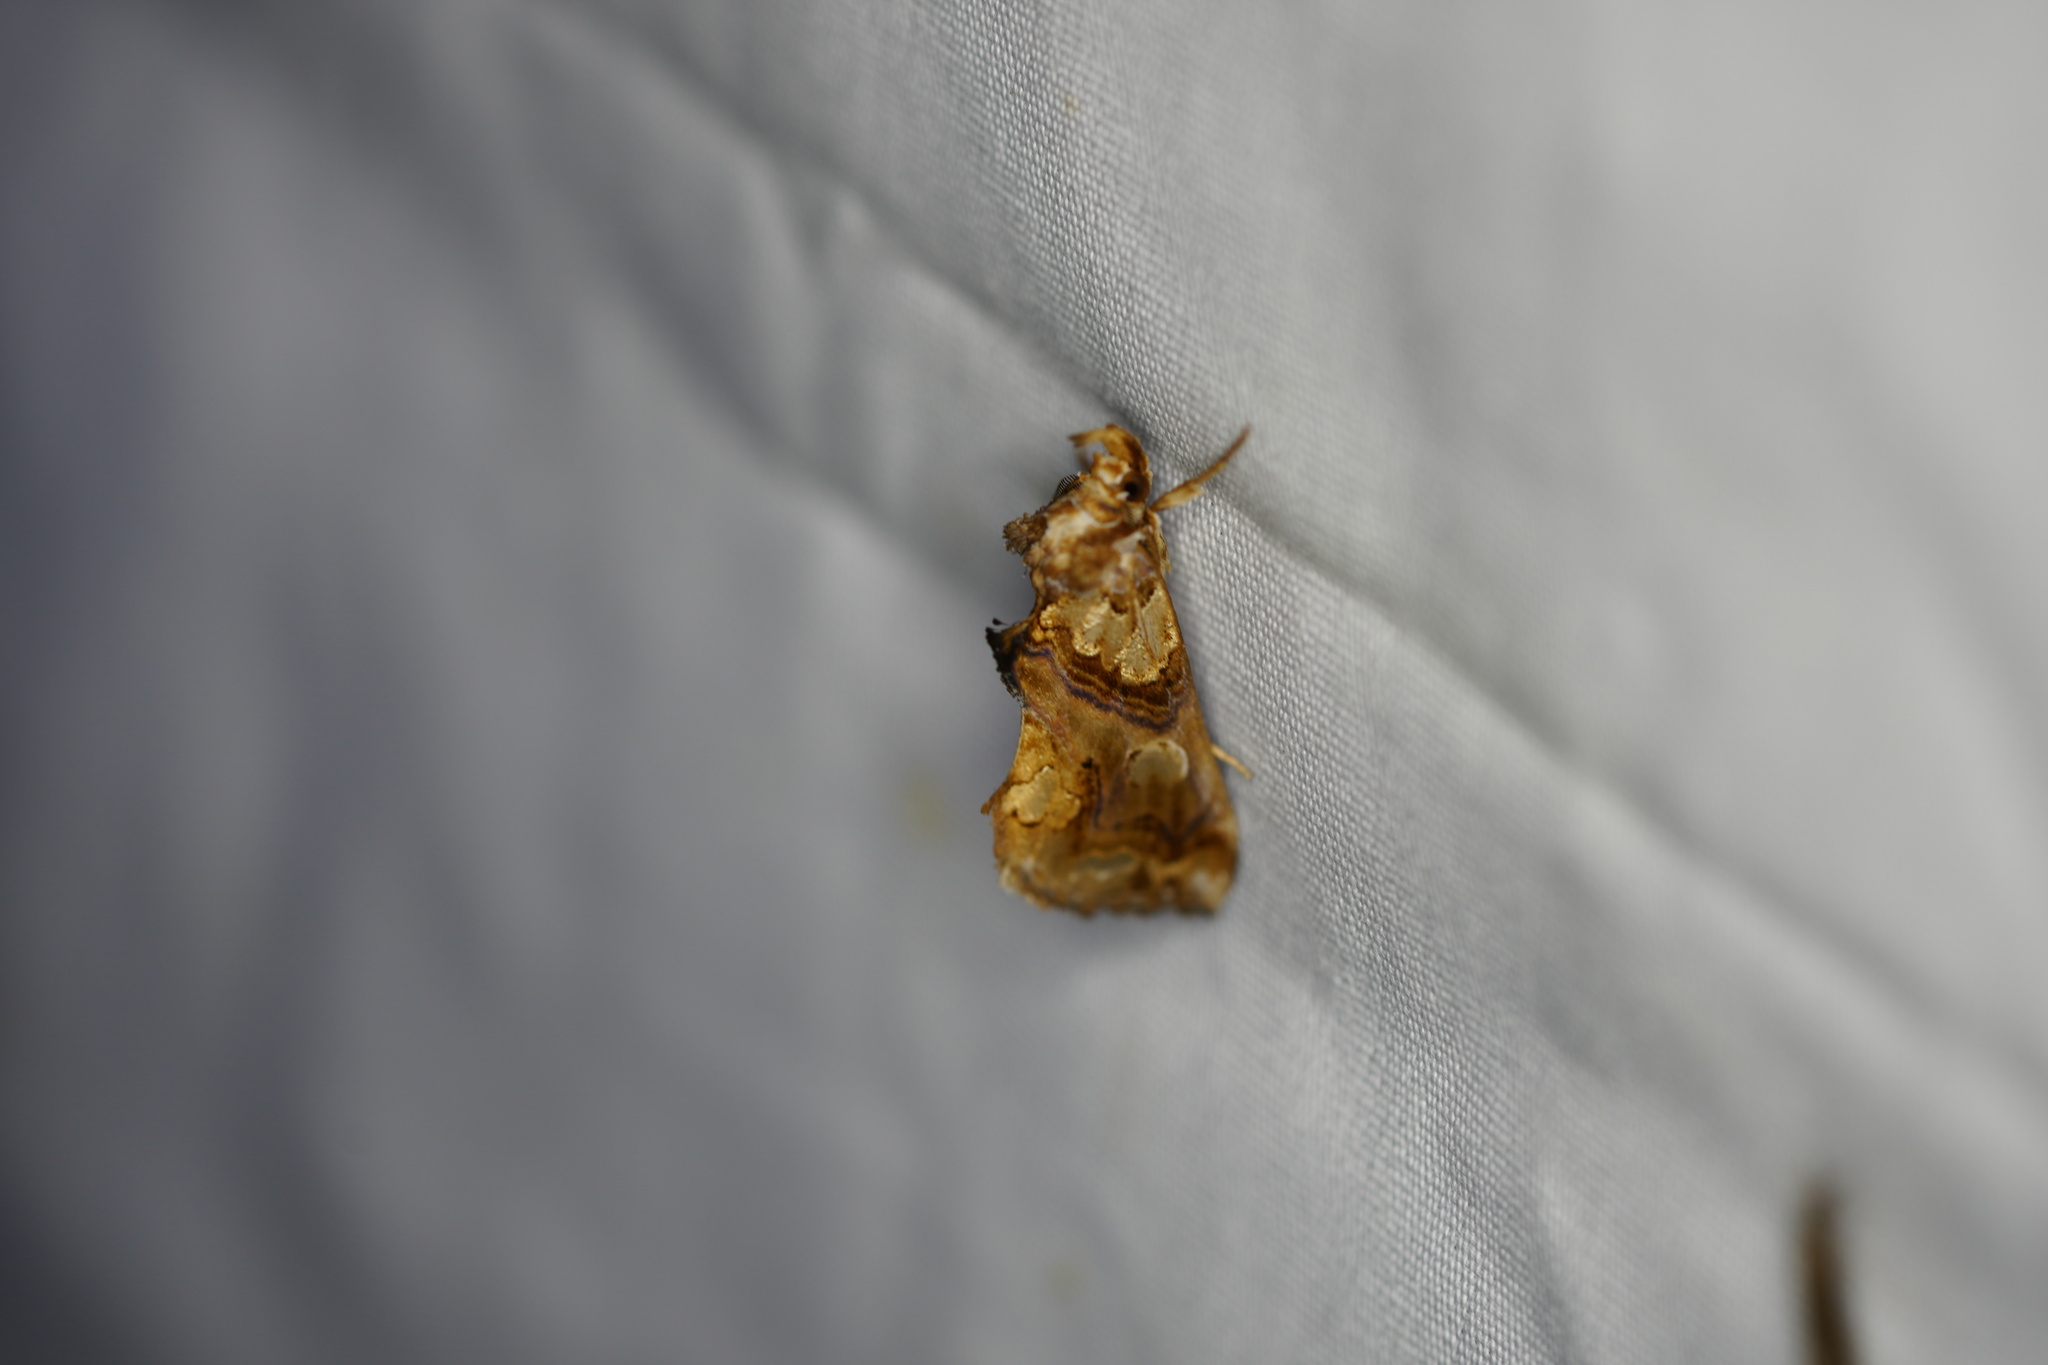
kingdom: Animalia
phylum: Arthropoda
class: Insecta
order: Lepidoptera
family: Erebidae
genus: Plusiodonta
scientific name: Plusiodonta compressipalpis
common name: Moonseed moth
